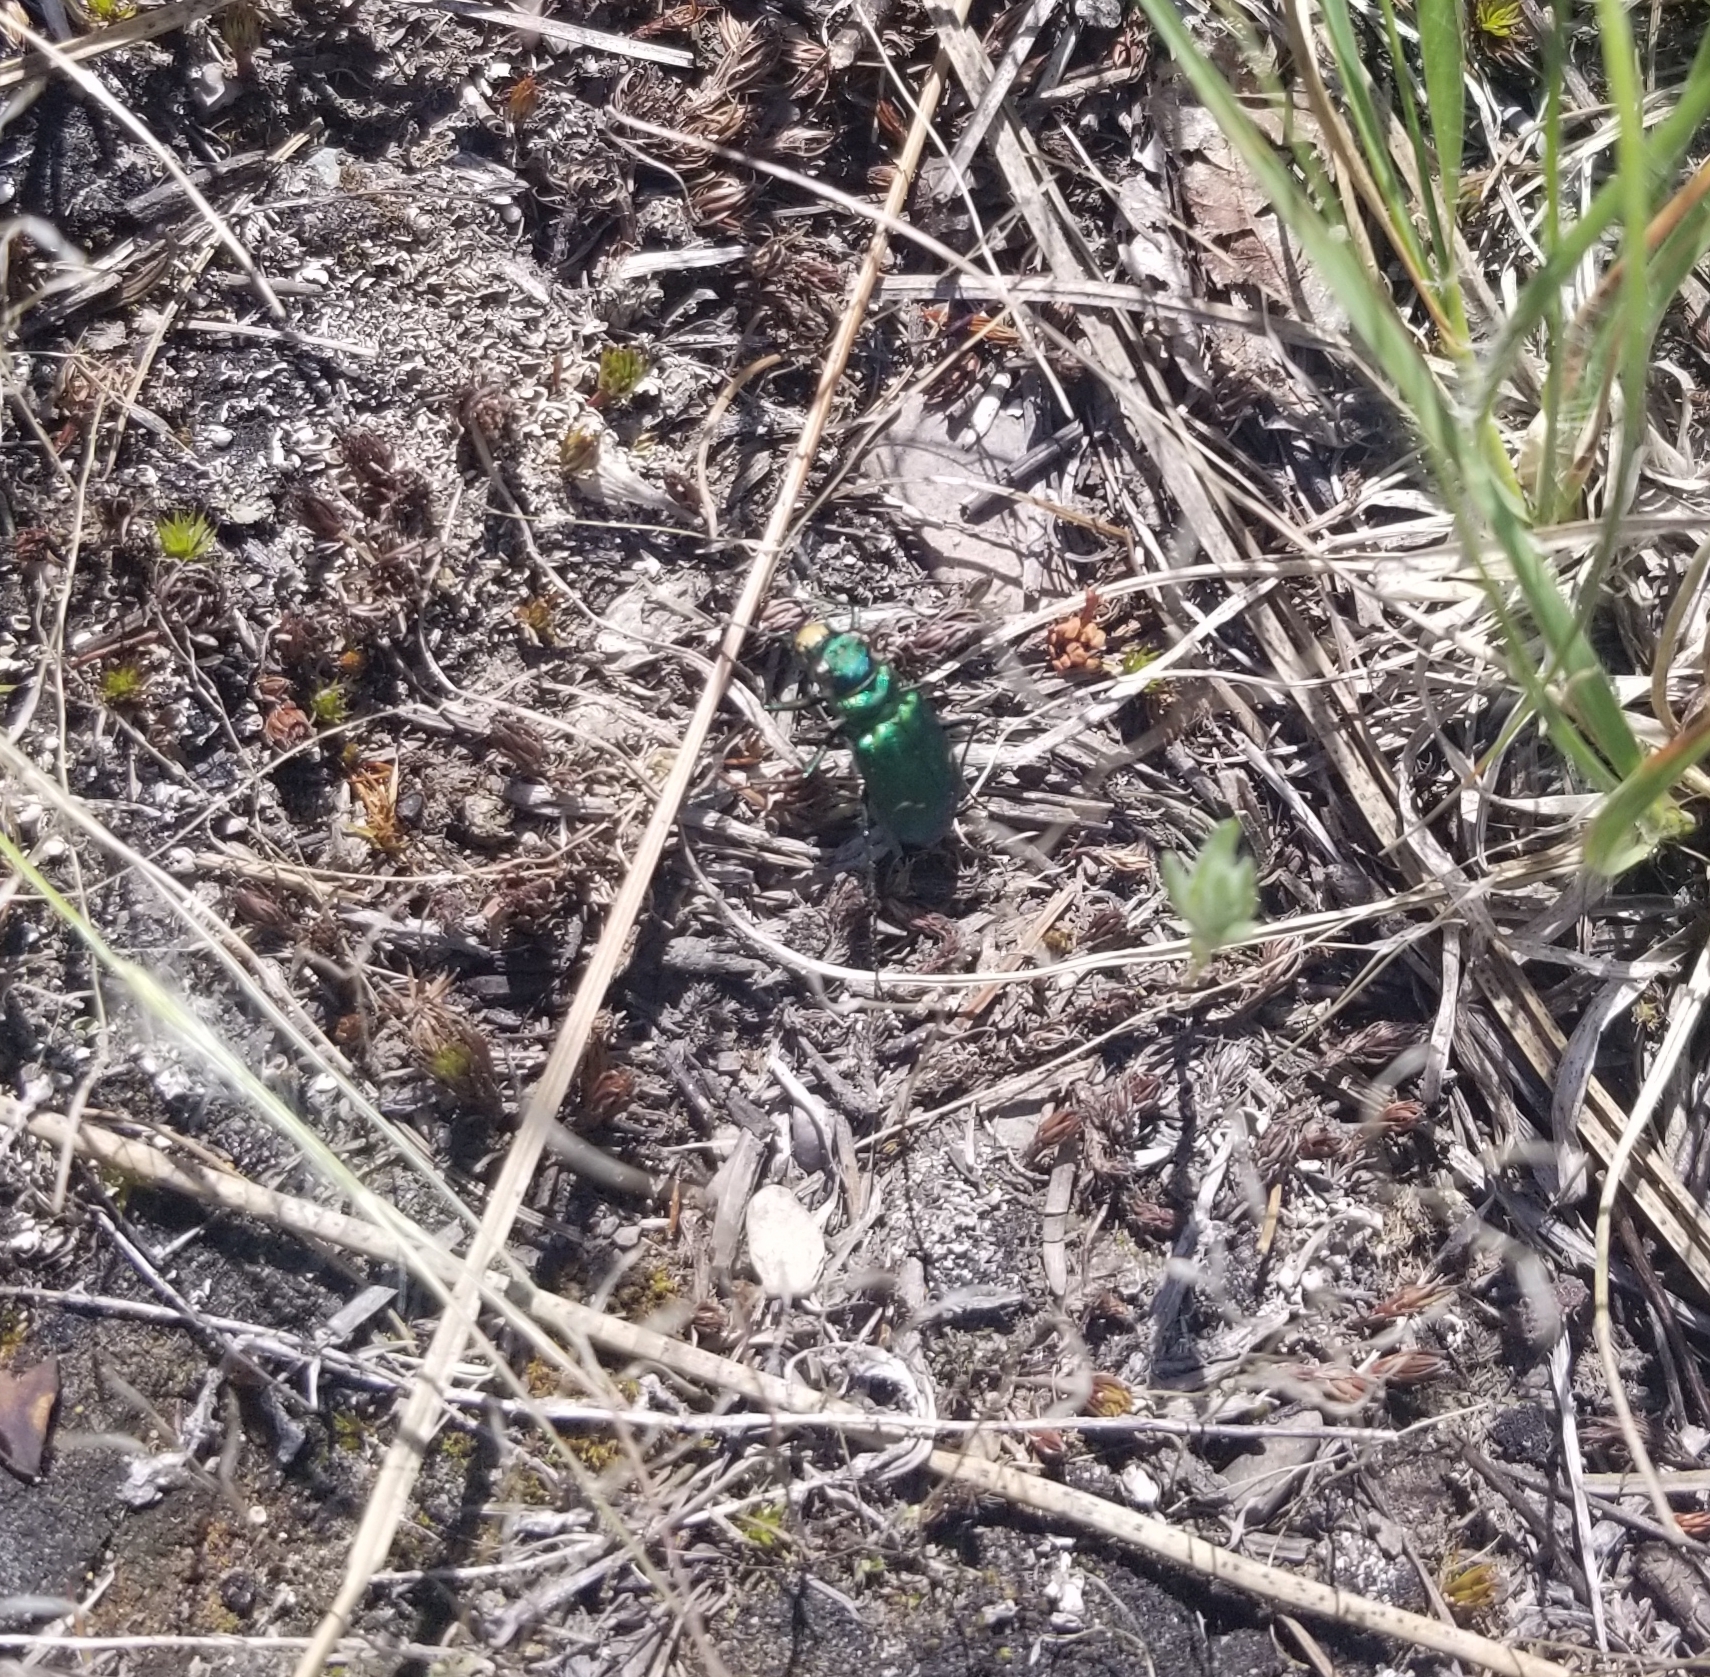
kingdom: Animalia
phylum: Arthropoda
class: Insecta
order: Coleoptera
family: Carabidae
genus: Cicindela
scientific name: Cicindela longilabris
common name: Boreal long-lipped tiger beetle
